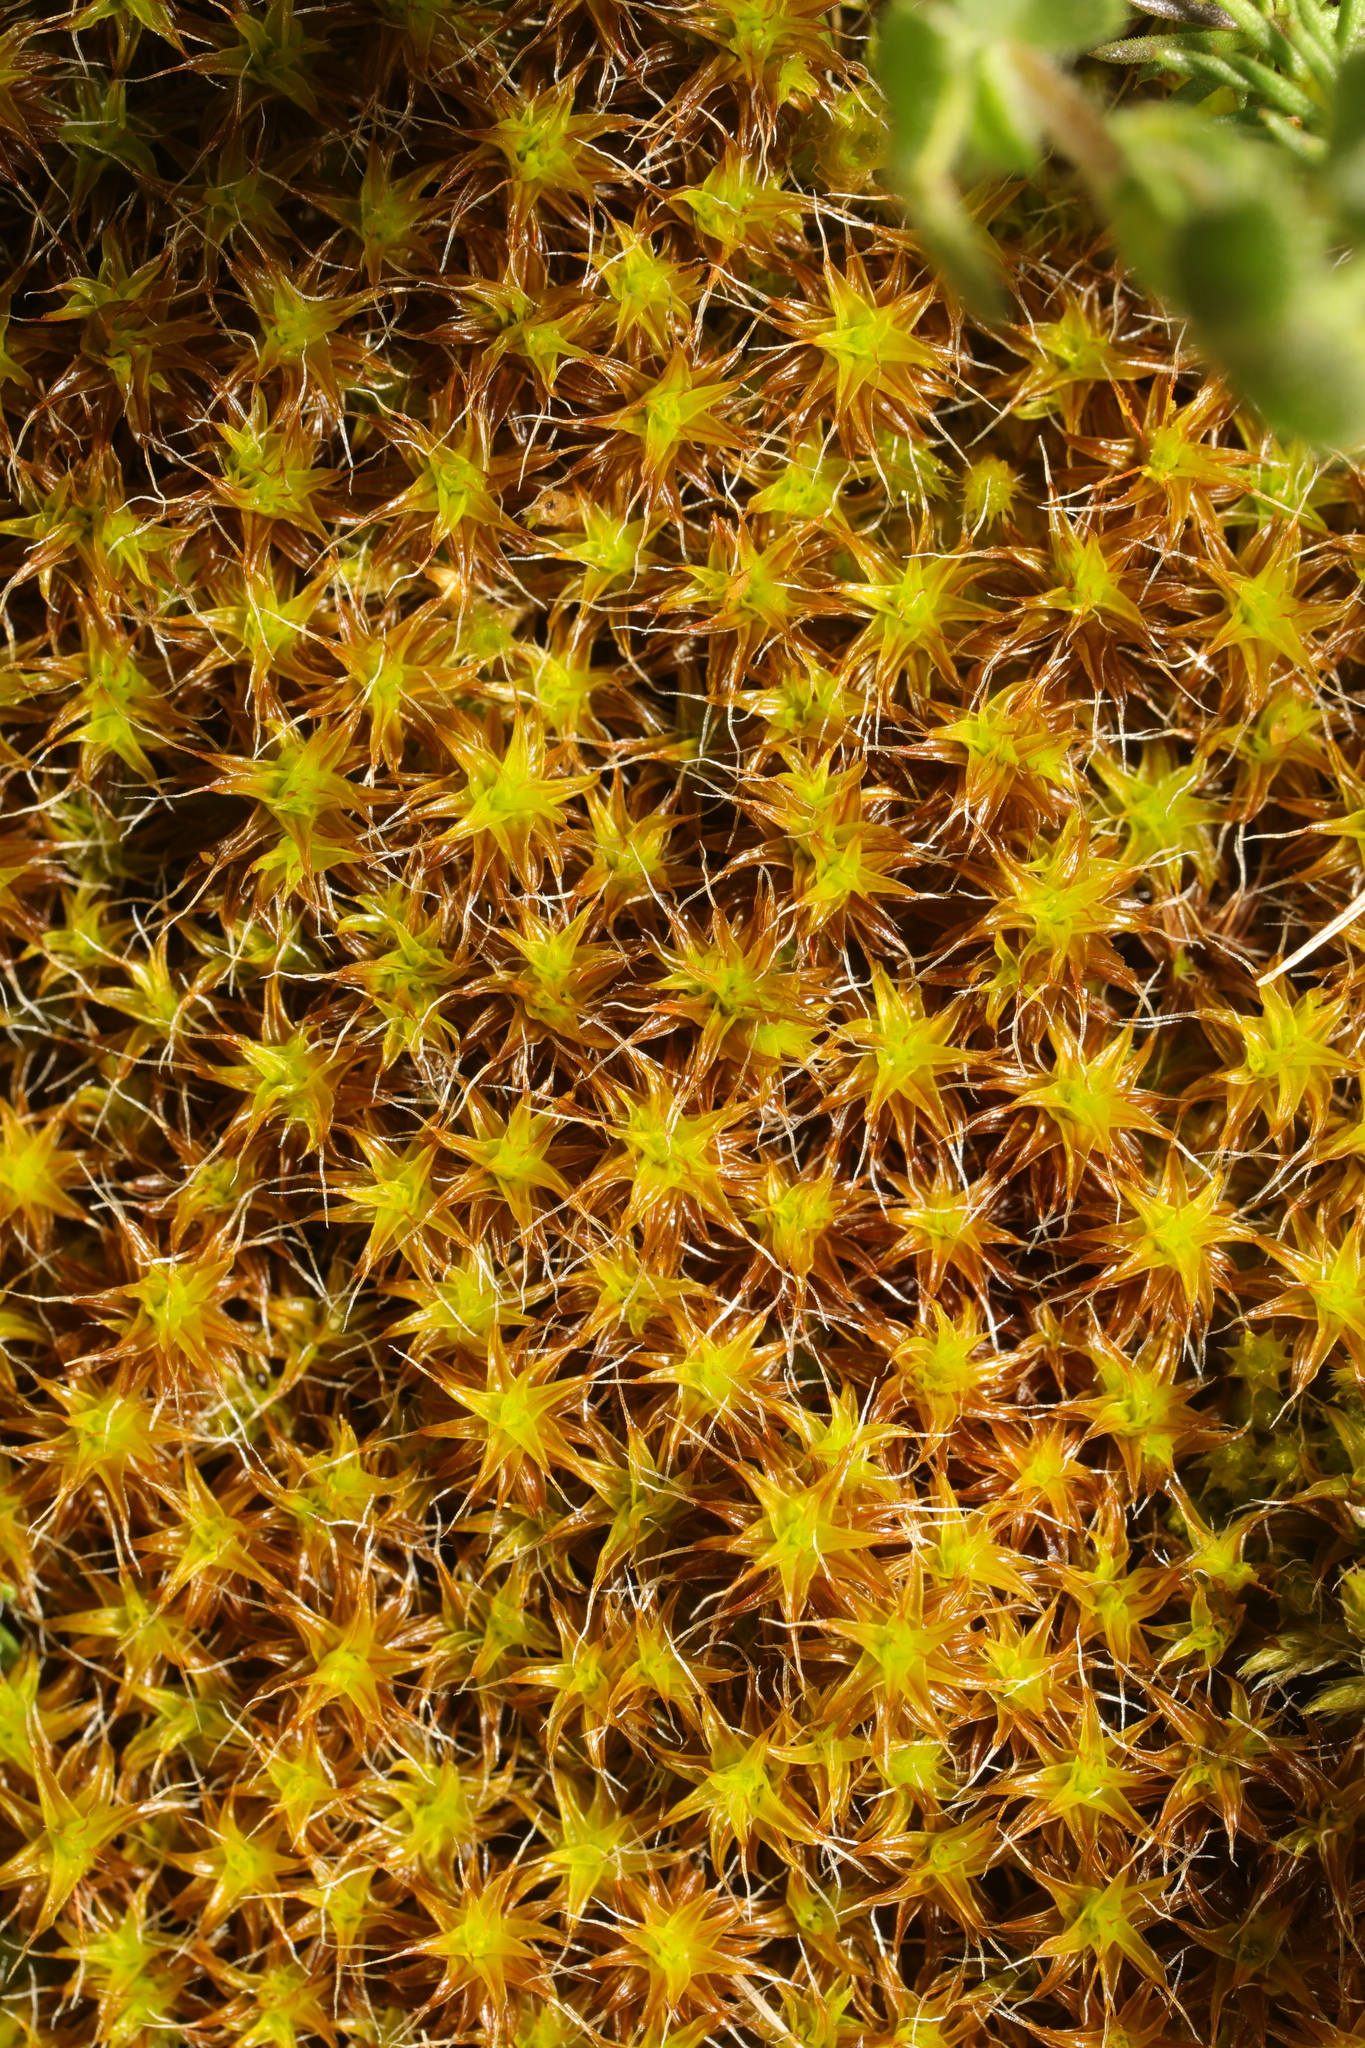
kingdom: Plantae
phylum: Bryophyta
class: Bryopsida
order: Pottiales
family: Pottiaceae
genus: Syntrichia
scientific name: Syntrichia ruralis
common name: Sidewalk screw moss
